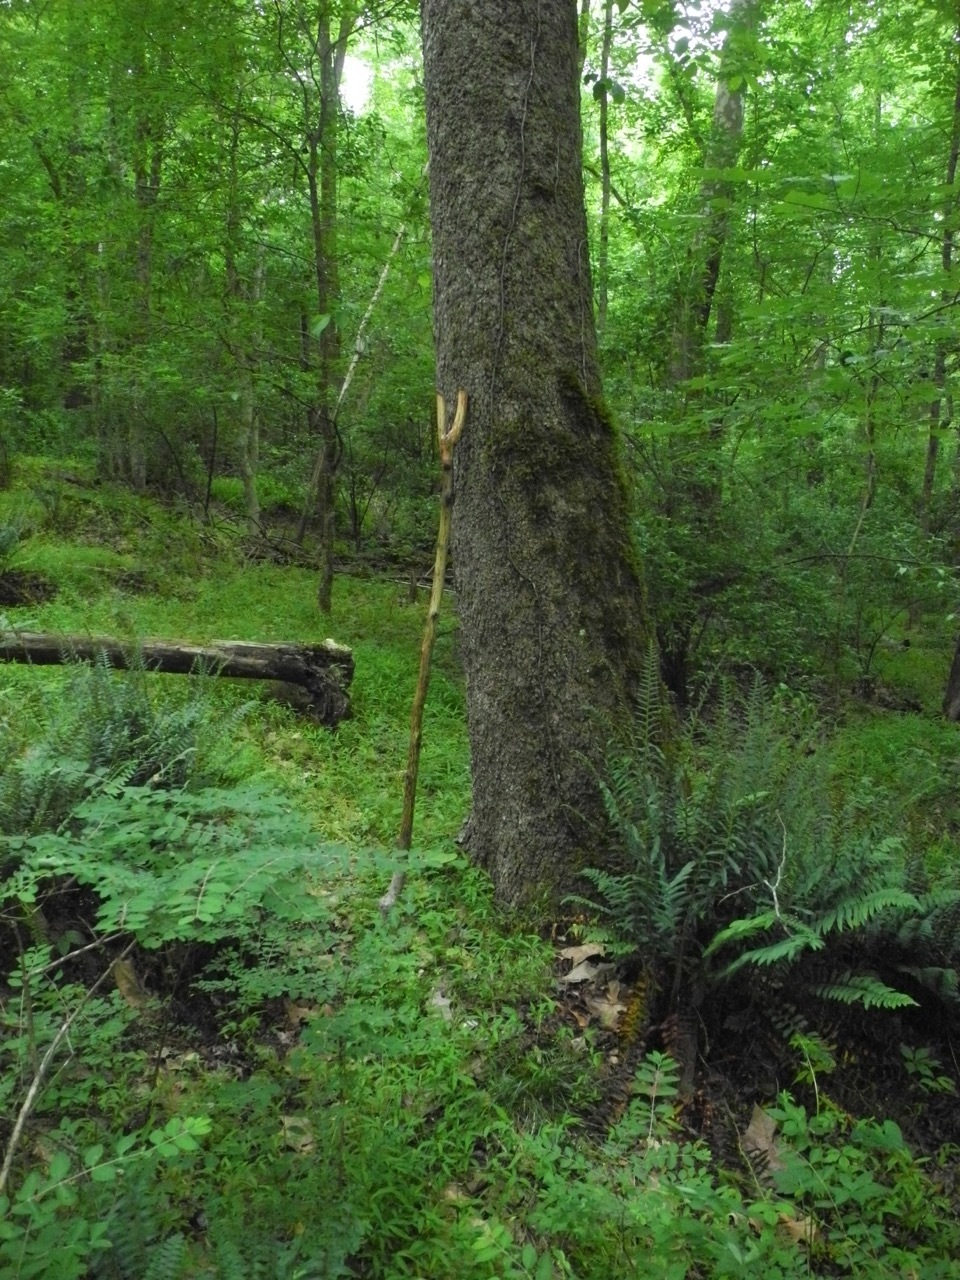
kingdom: Plantae
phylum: Tracheophyta
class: Magnoliopsida
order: Proteales
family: Platanaceae
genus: Platanus
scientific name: Platanus occidentalis
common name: American sycamore
